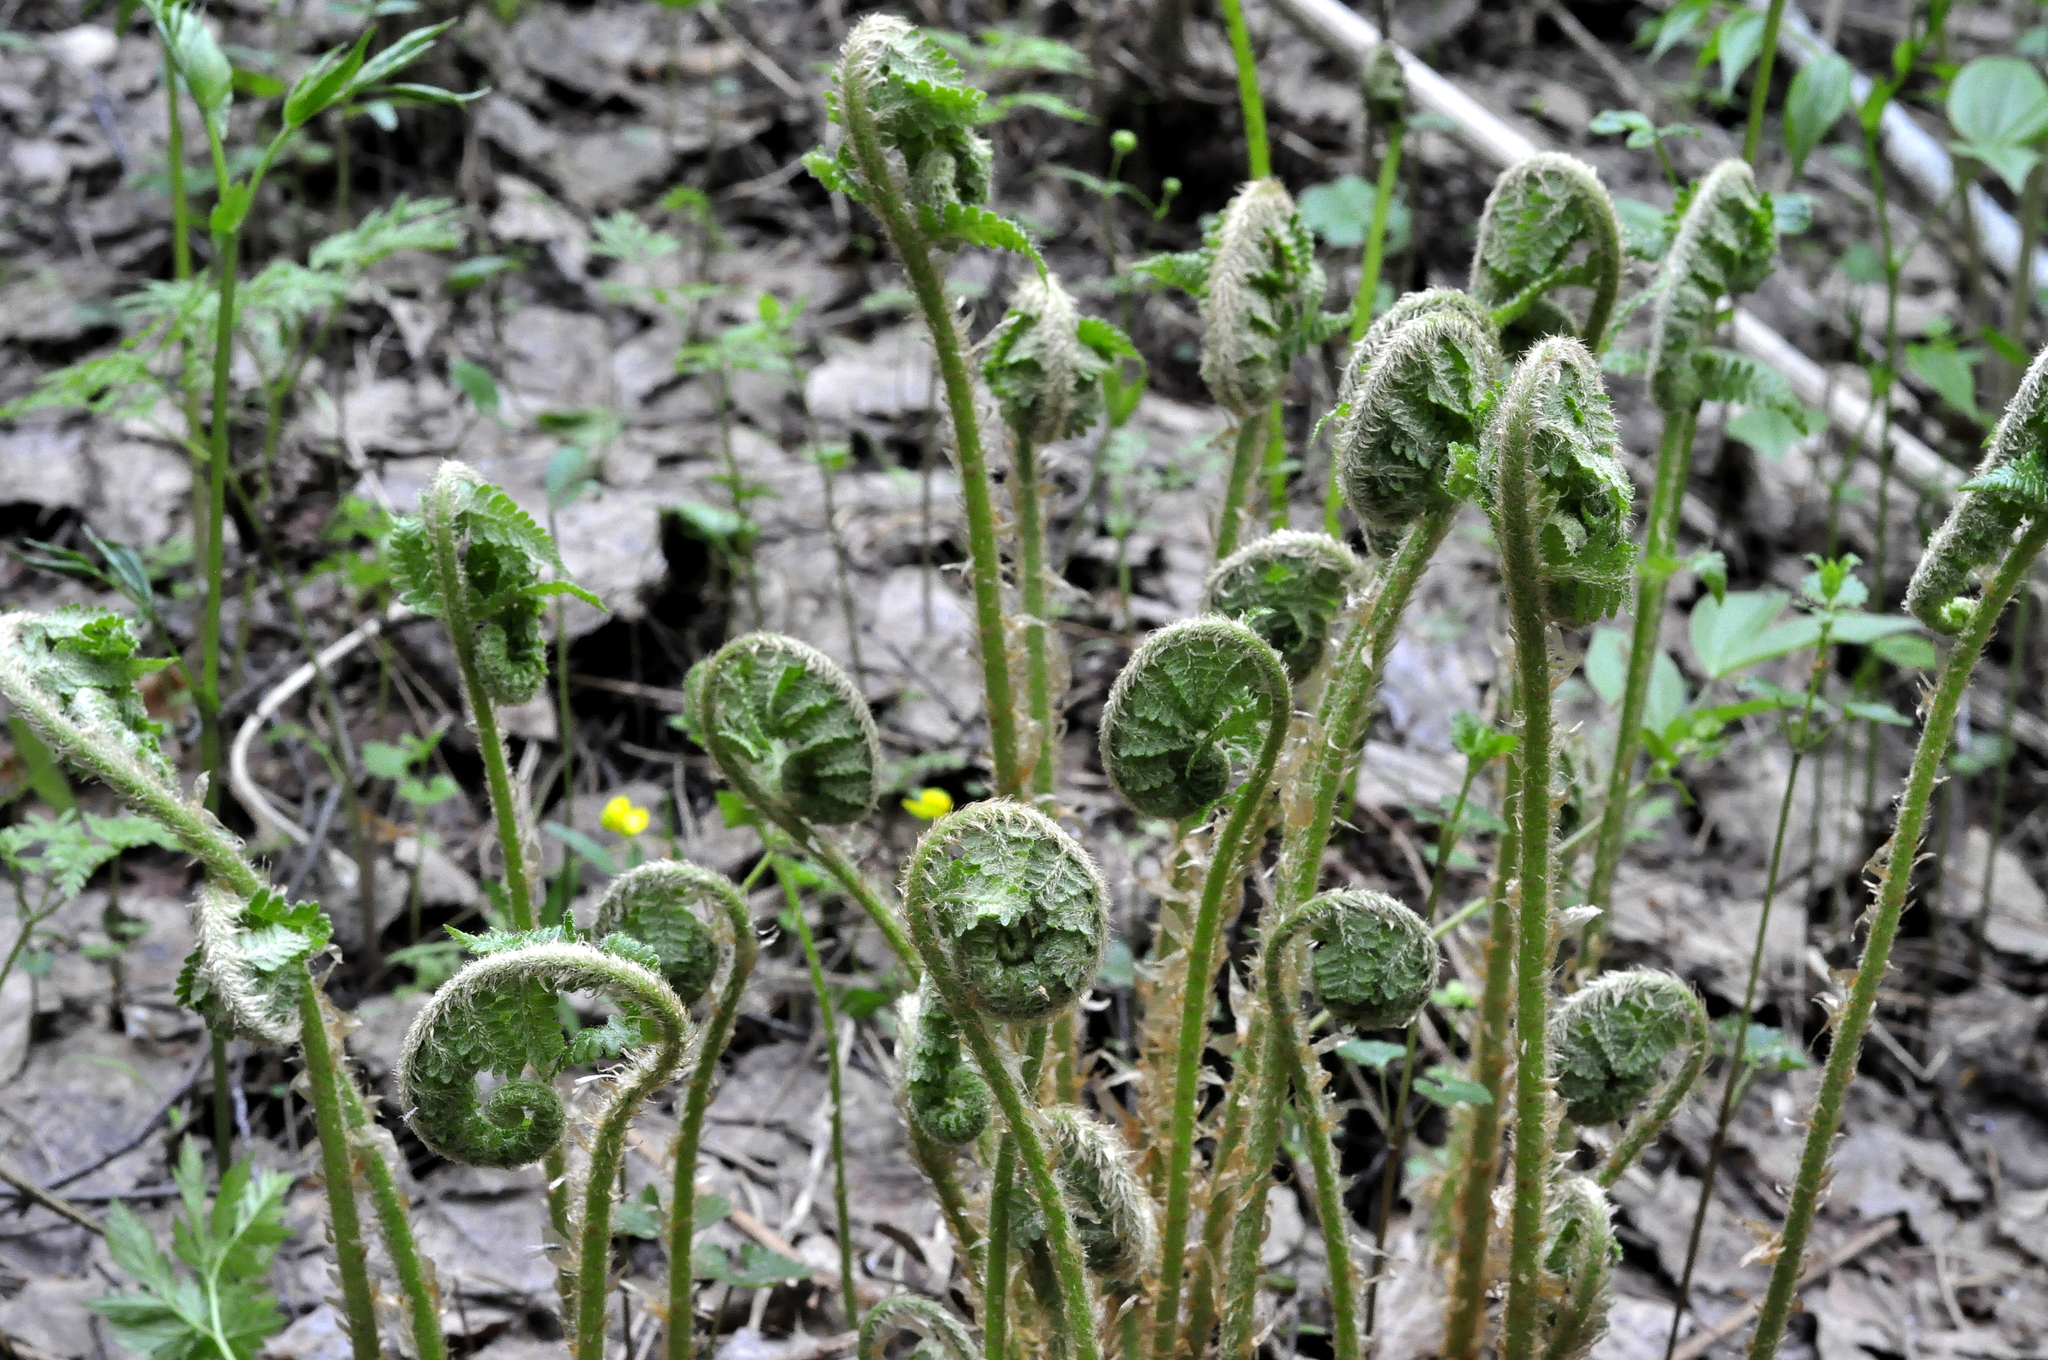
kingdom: Plantae
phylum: Tracheophyta
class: Polypodiopsida
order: Polypodiales
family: Dryopteridaceae
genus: Dryopteris
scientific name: Dryopteris filix-mas
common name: Male fern
